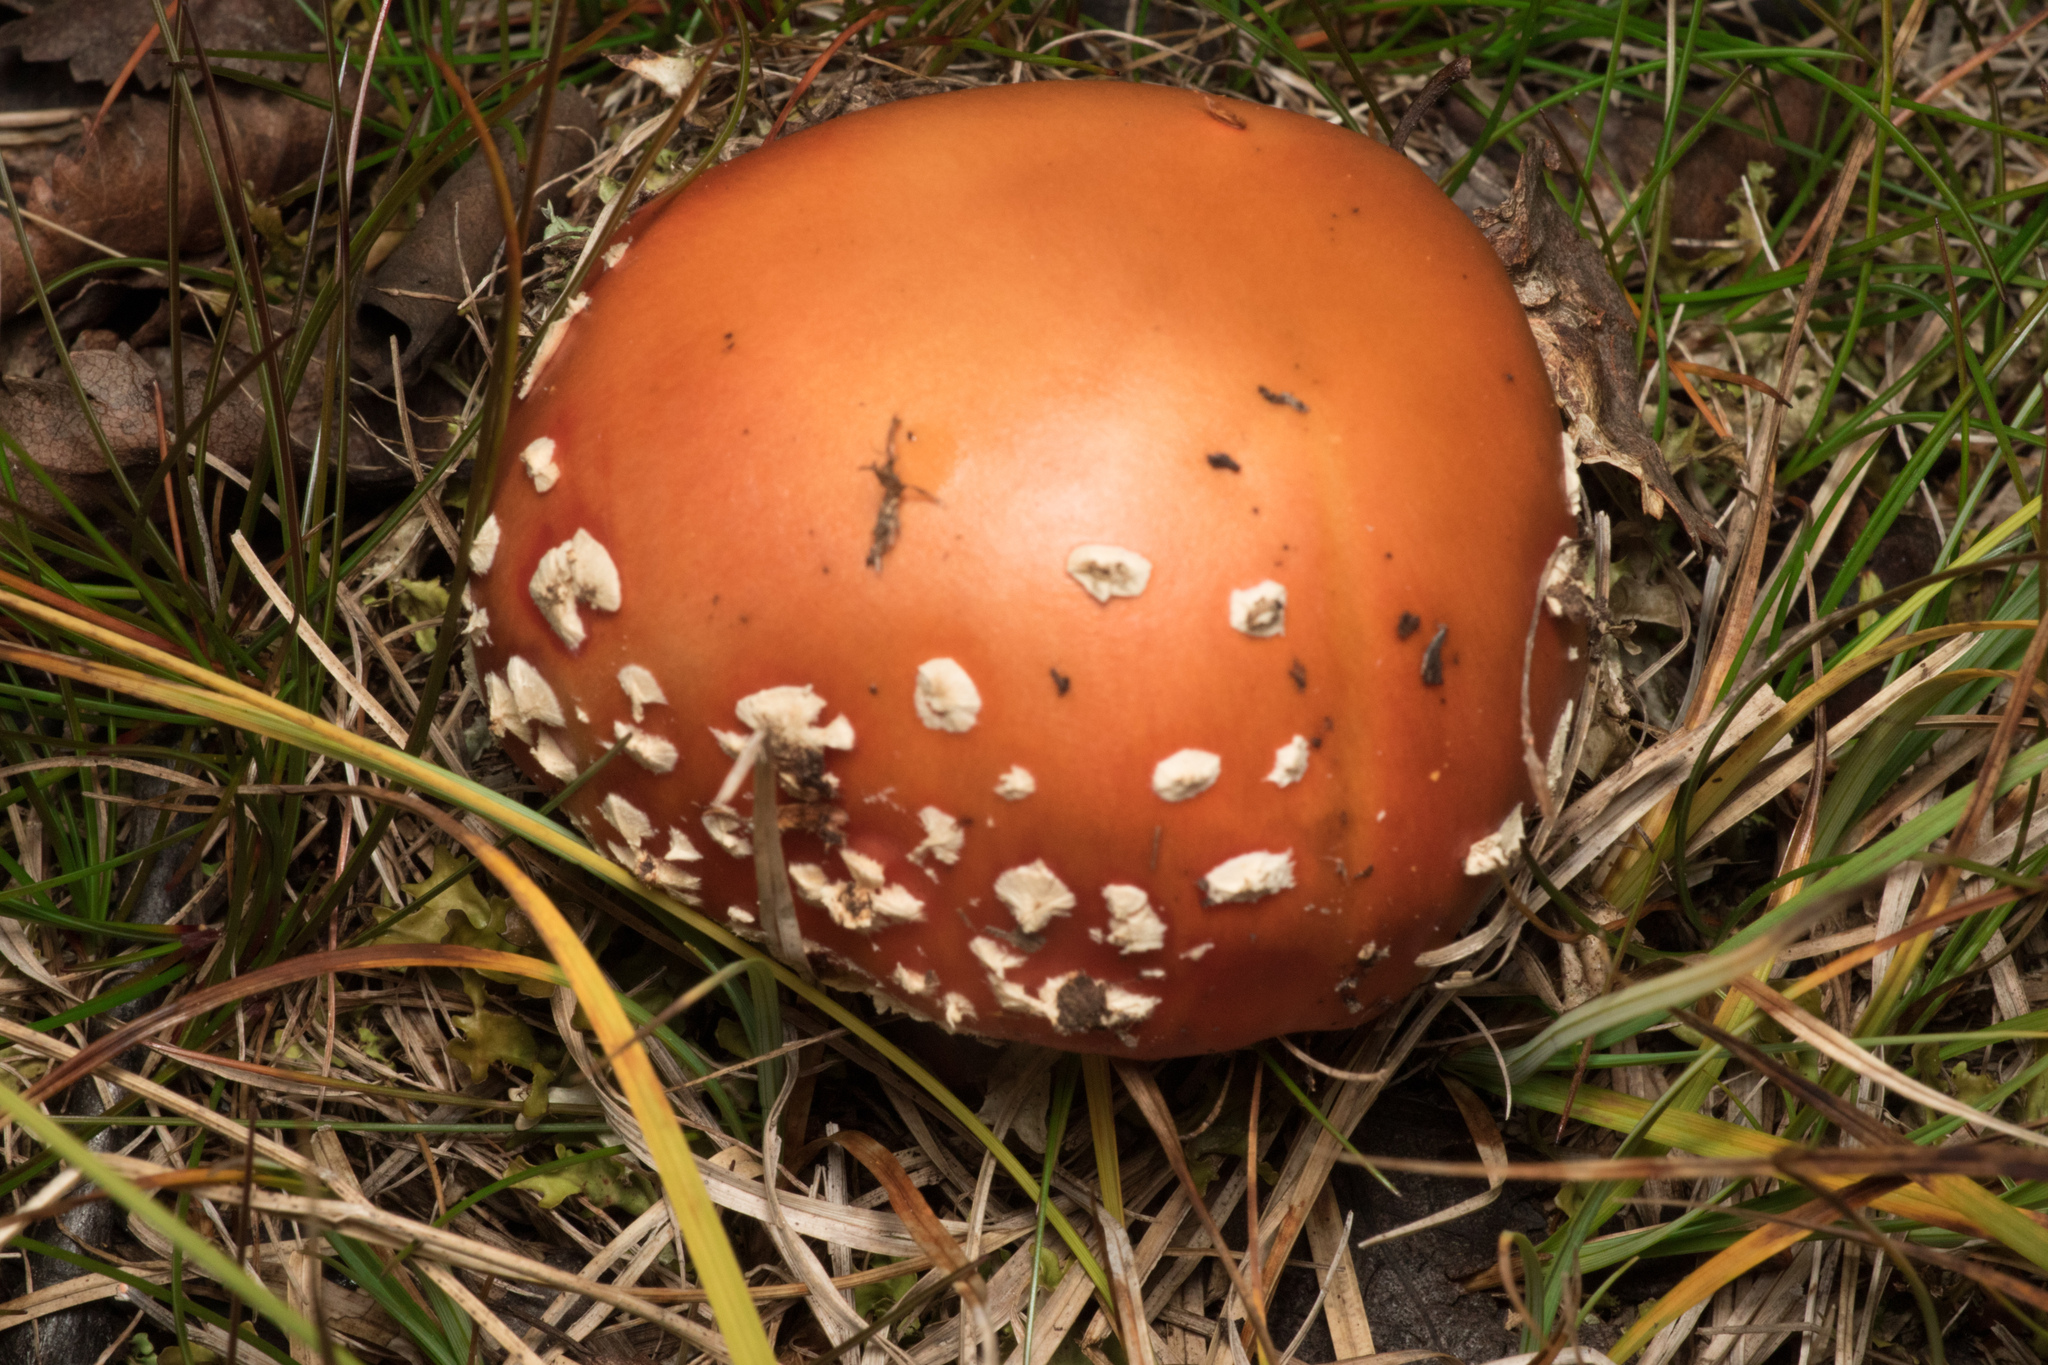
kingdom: Fungi
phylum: Basidiomycota
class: Agaricomycetes
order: Agaricales
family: Amanitaceae
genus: Amanita
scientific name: Amanita muscaria
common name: Fly agaric
